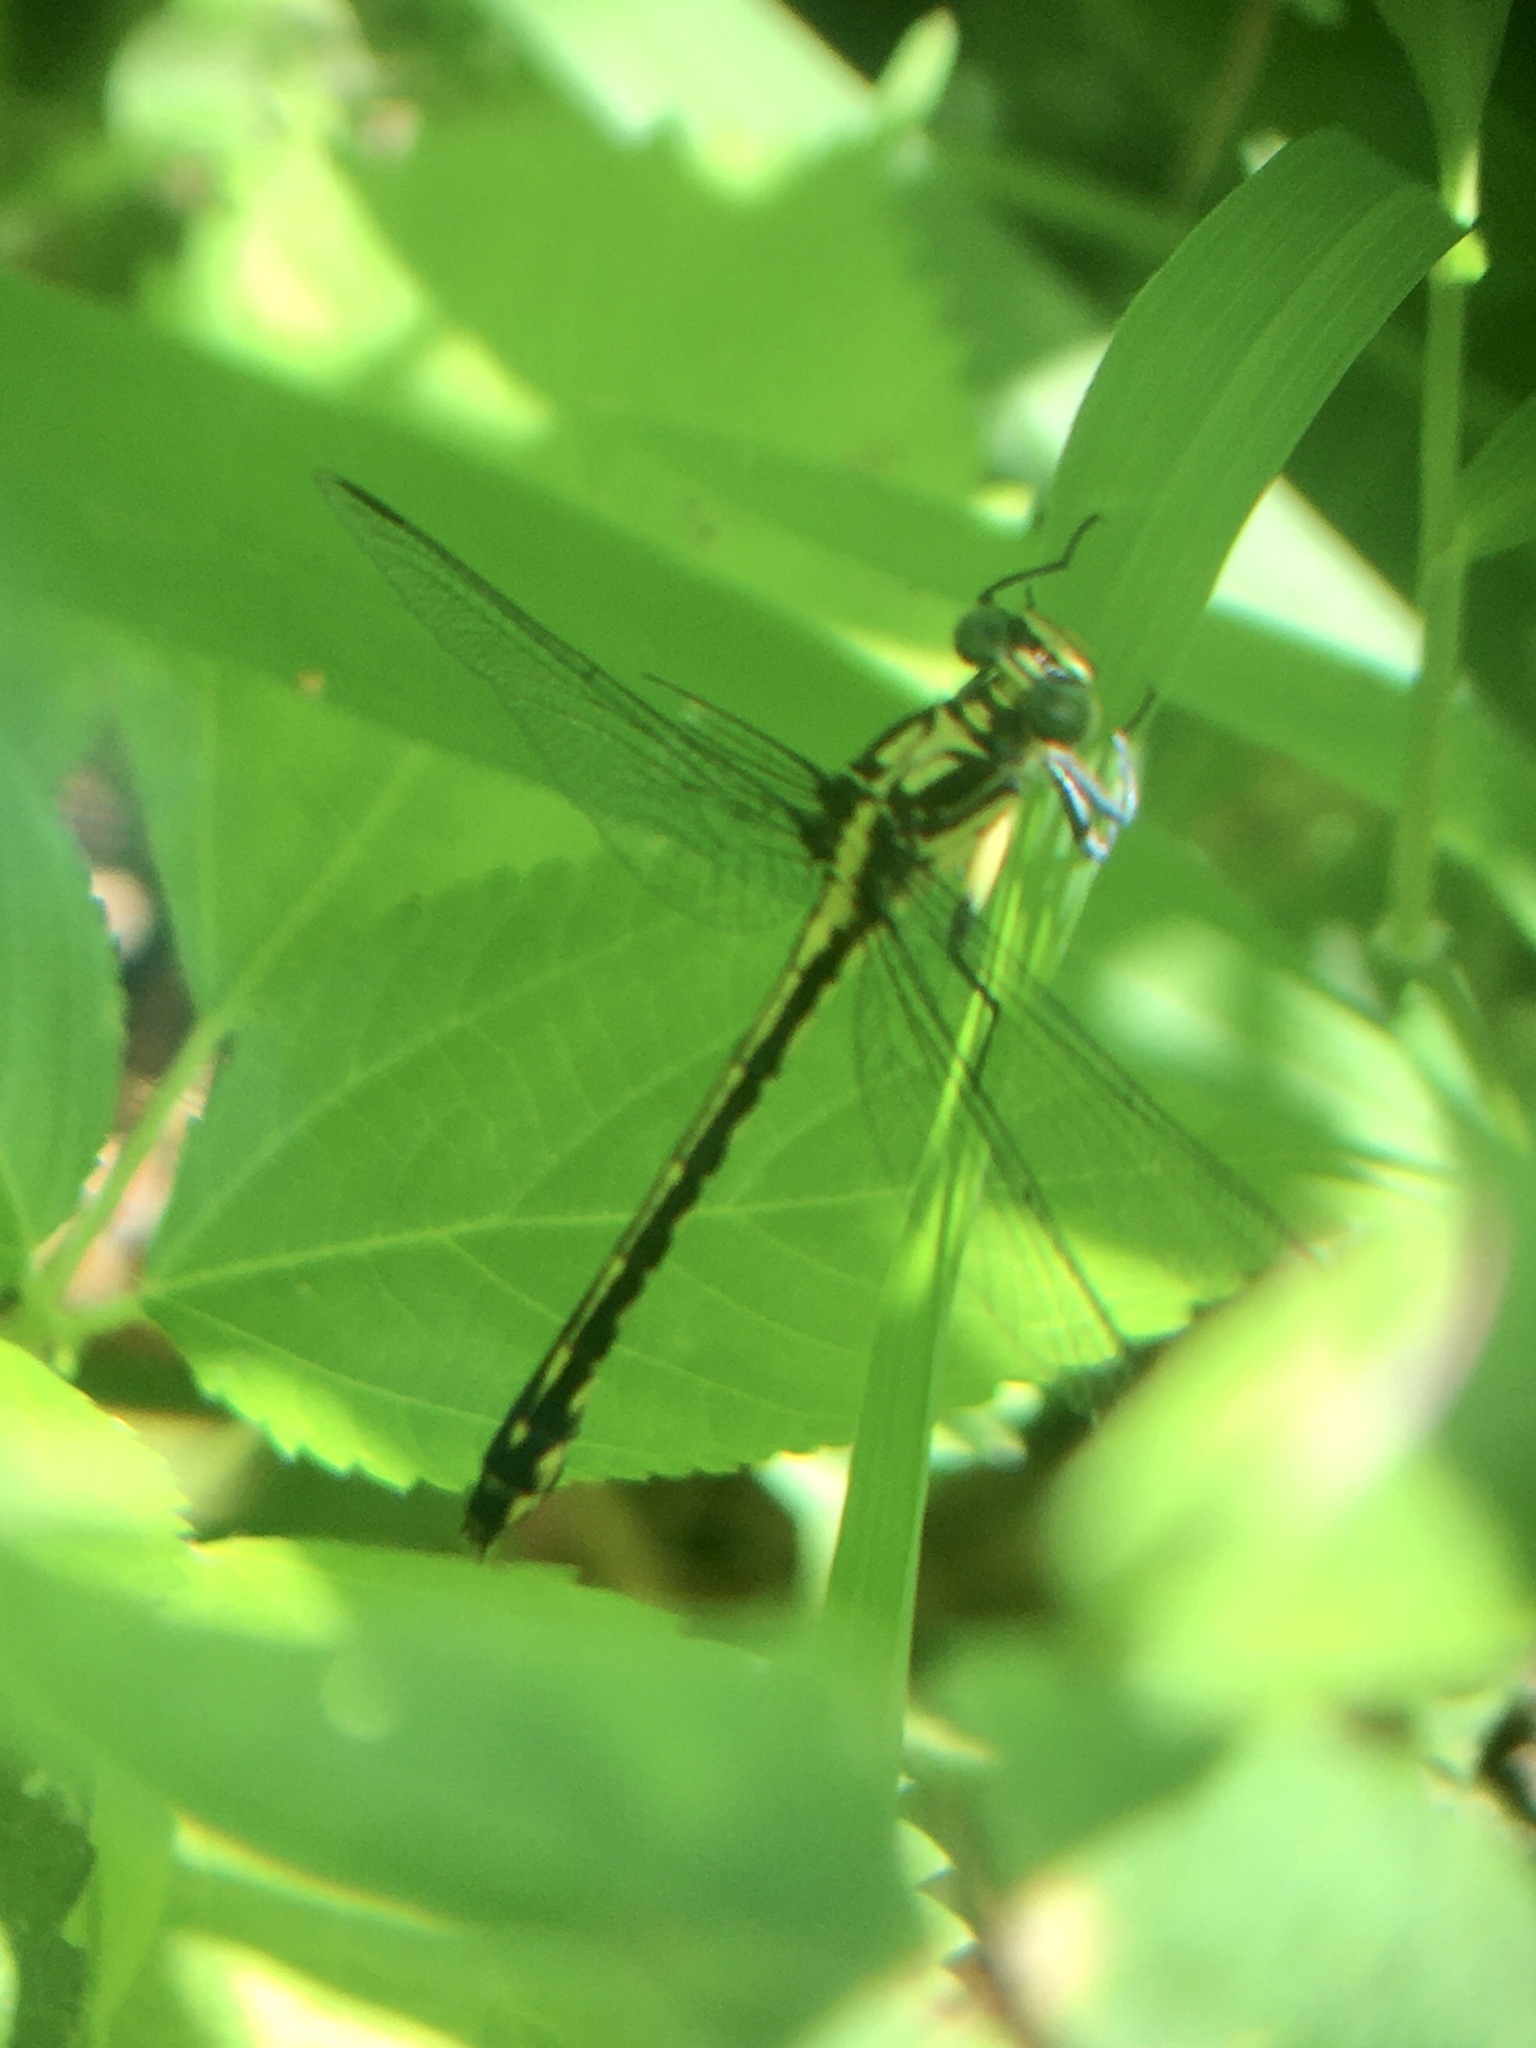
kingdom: Animalia
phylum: Arthropoda
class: Insecta
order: Odonata
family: Gomphidae
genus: Stylurus
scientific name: Stylurus amnicola
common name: Riverine clubtail
